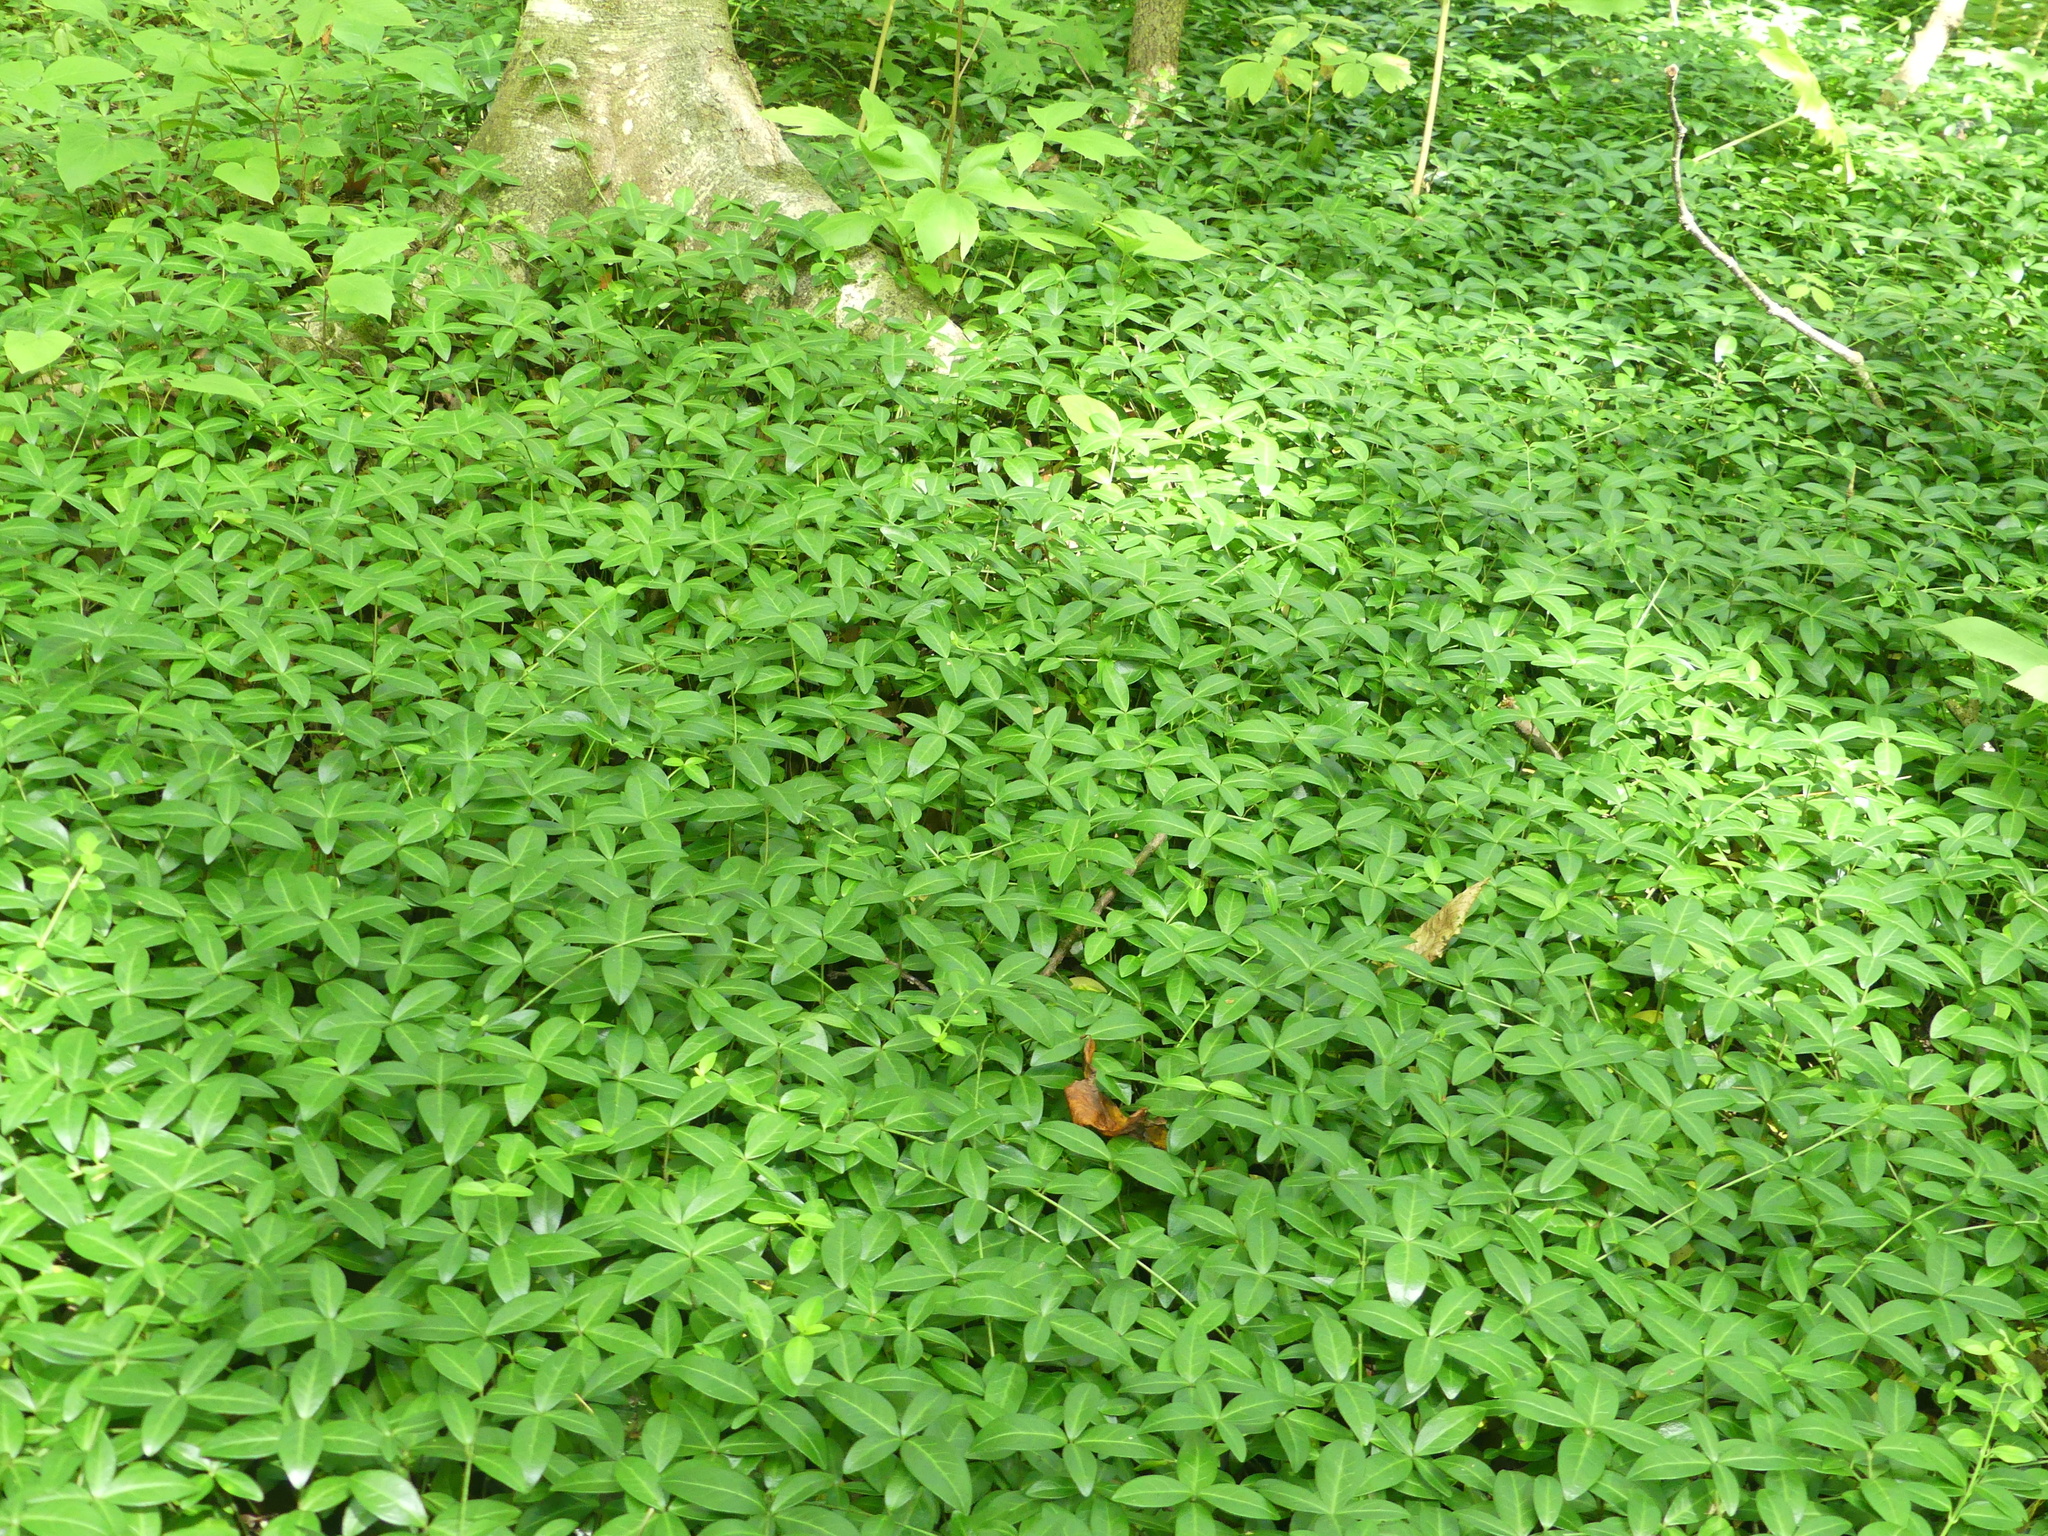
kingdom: Plantae
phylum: Tracheophyta
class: Magnoliopsida
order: Gentianales
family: Apocynaceae
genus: Vinca
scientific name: Vinca minor
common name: Lesser periwinkle
